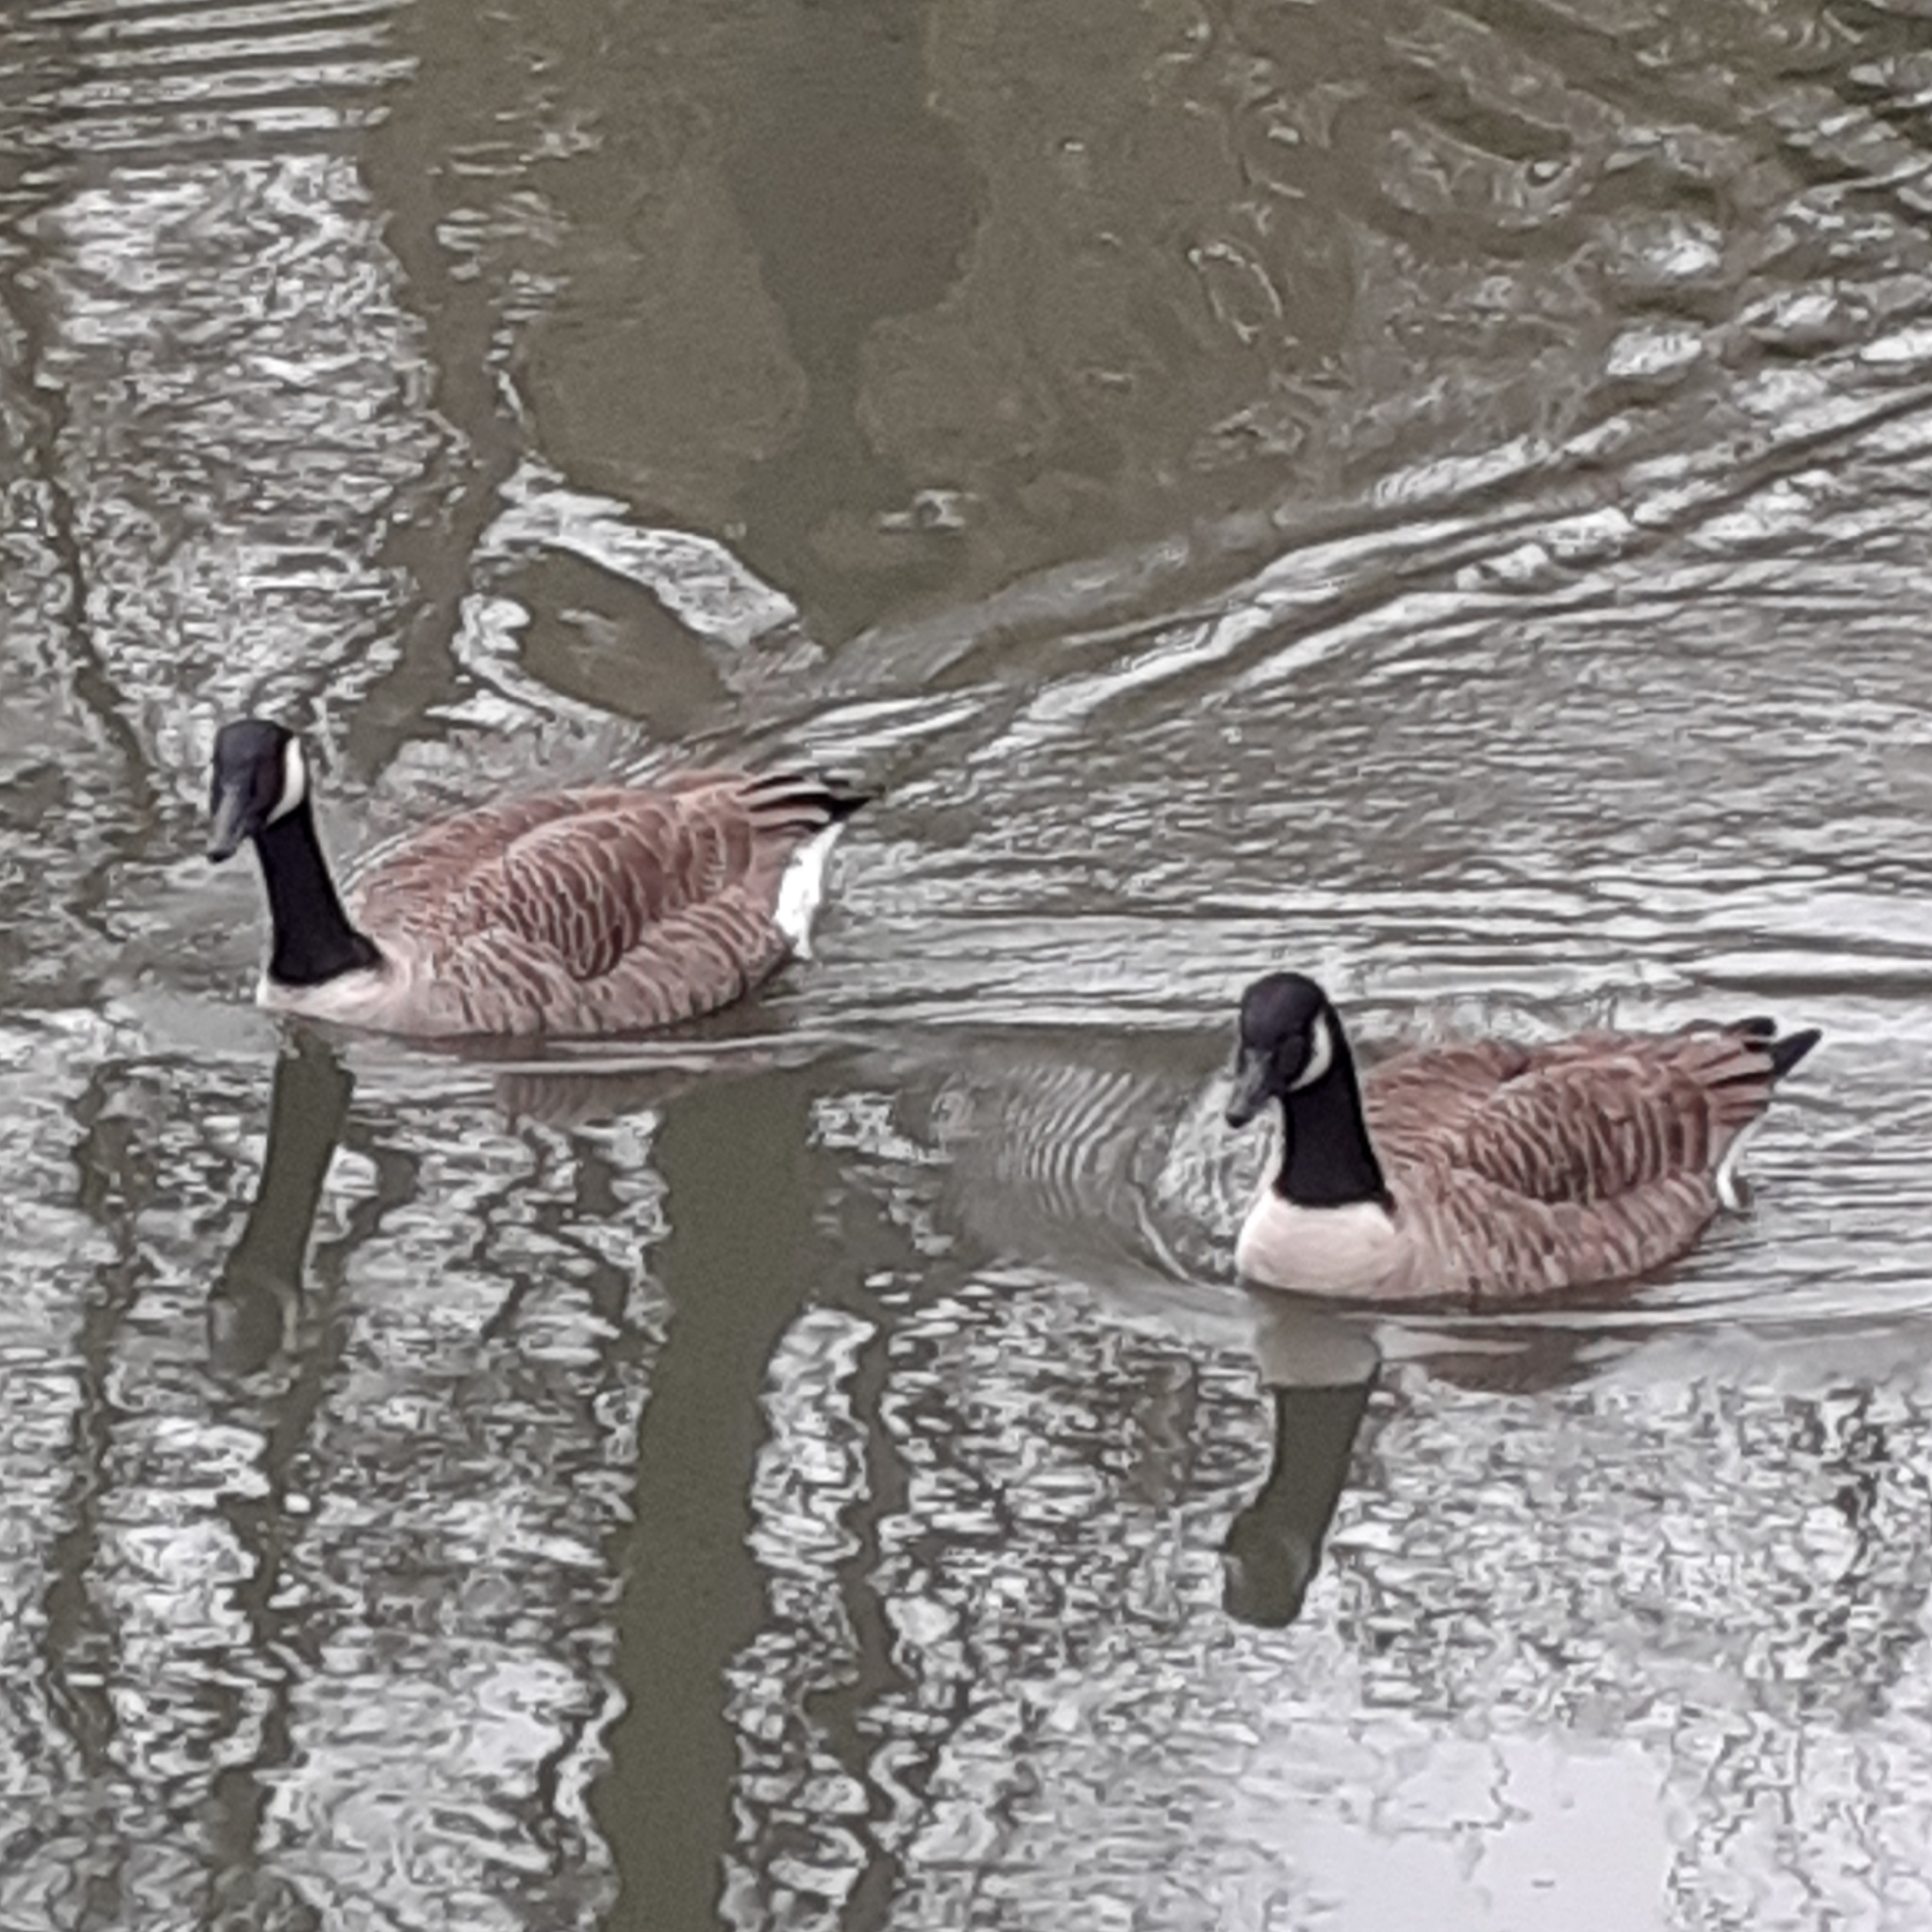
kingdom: Animalia
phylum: Chordata
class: Aves
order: Anseriformes
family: Anatidae
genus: Branta
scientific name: Branta canadensis
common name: Canada goose
